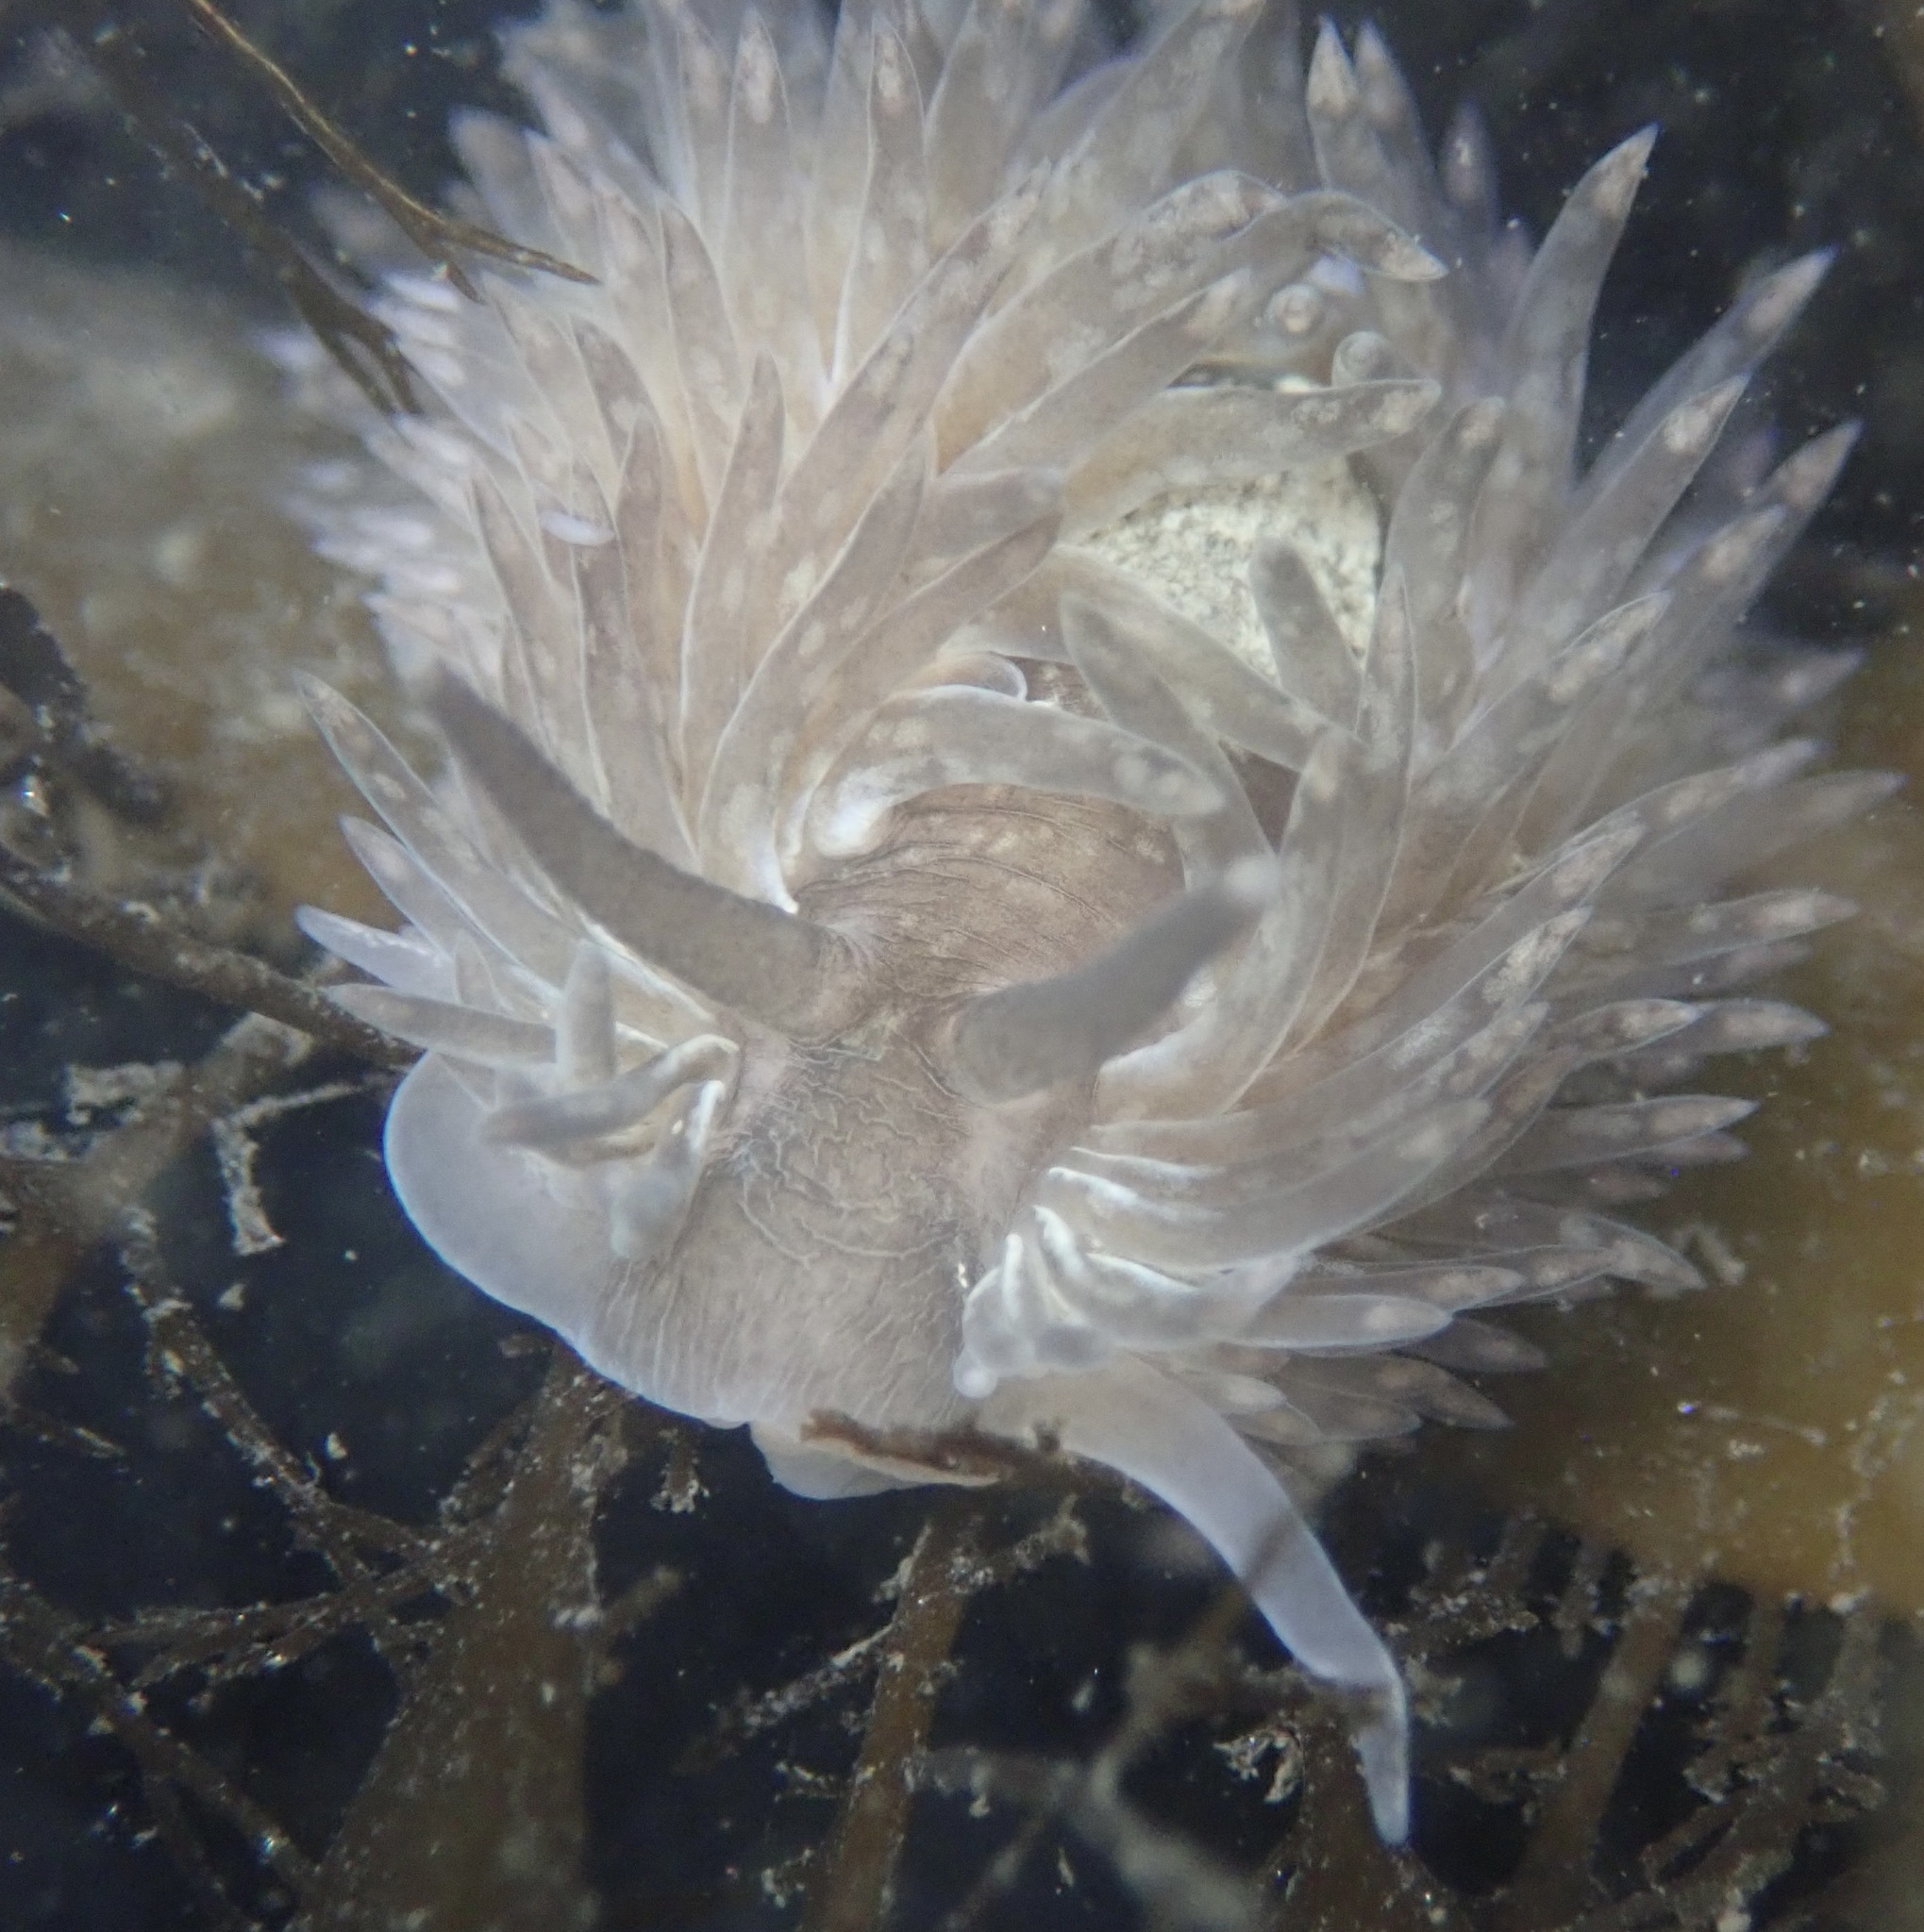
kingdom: Animalia
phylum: Mollusca
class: Gastropoda
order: Nudibranchia
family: Aeolidiidae
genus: Aeolidia
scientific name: Aeolidia loui
